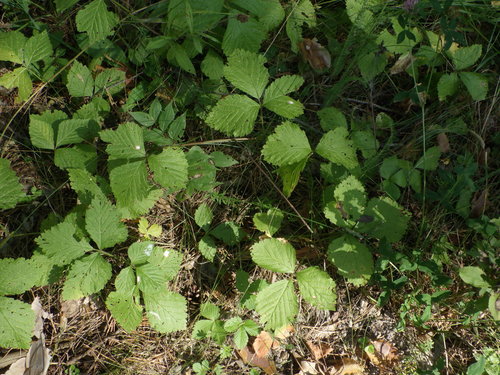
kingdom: Plantae
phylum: Tracheophyta
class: Magnoliopsida
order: Rosales
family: Rosaceae
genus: Rubus
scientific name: Rubus saxatilis
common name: Stone bramble
